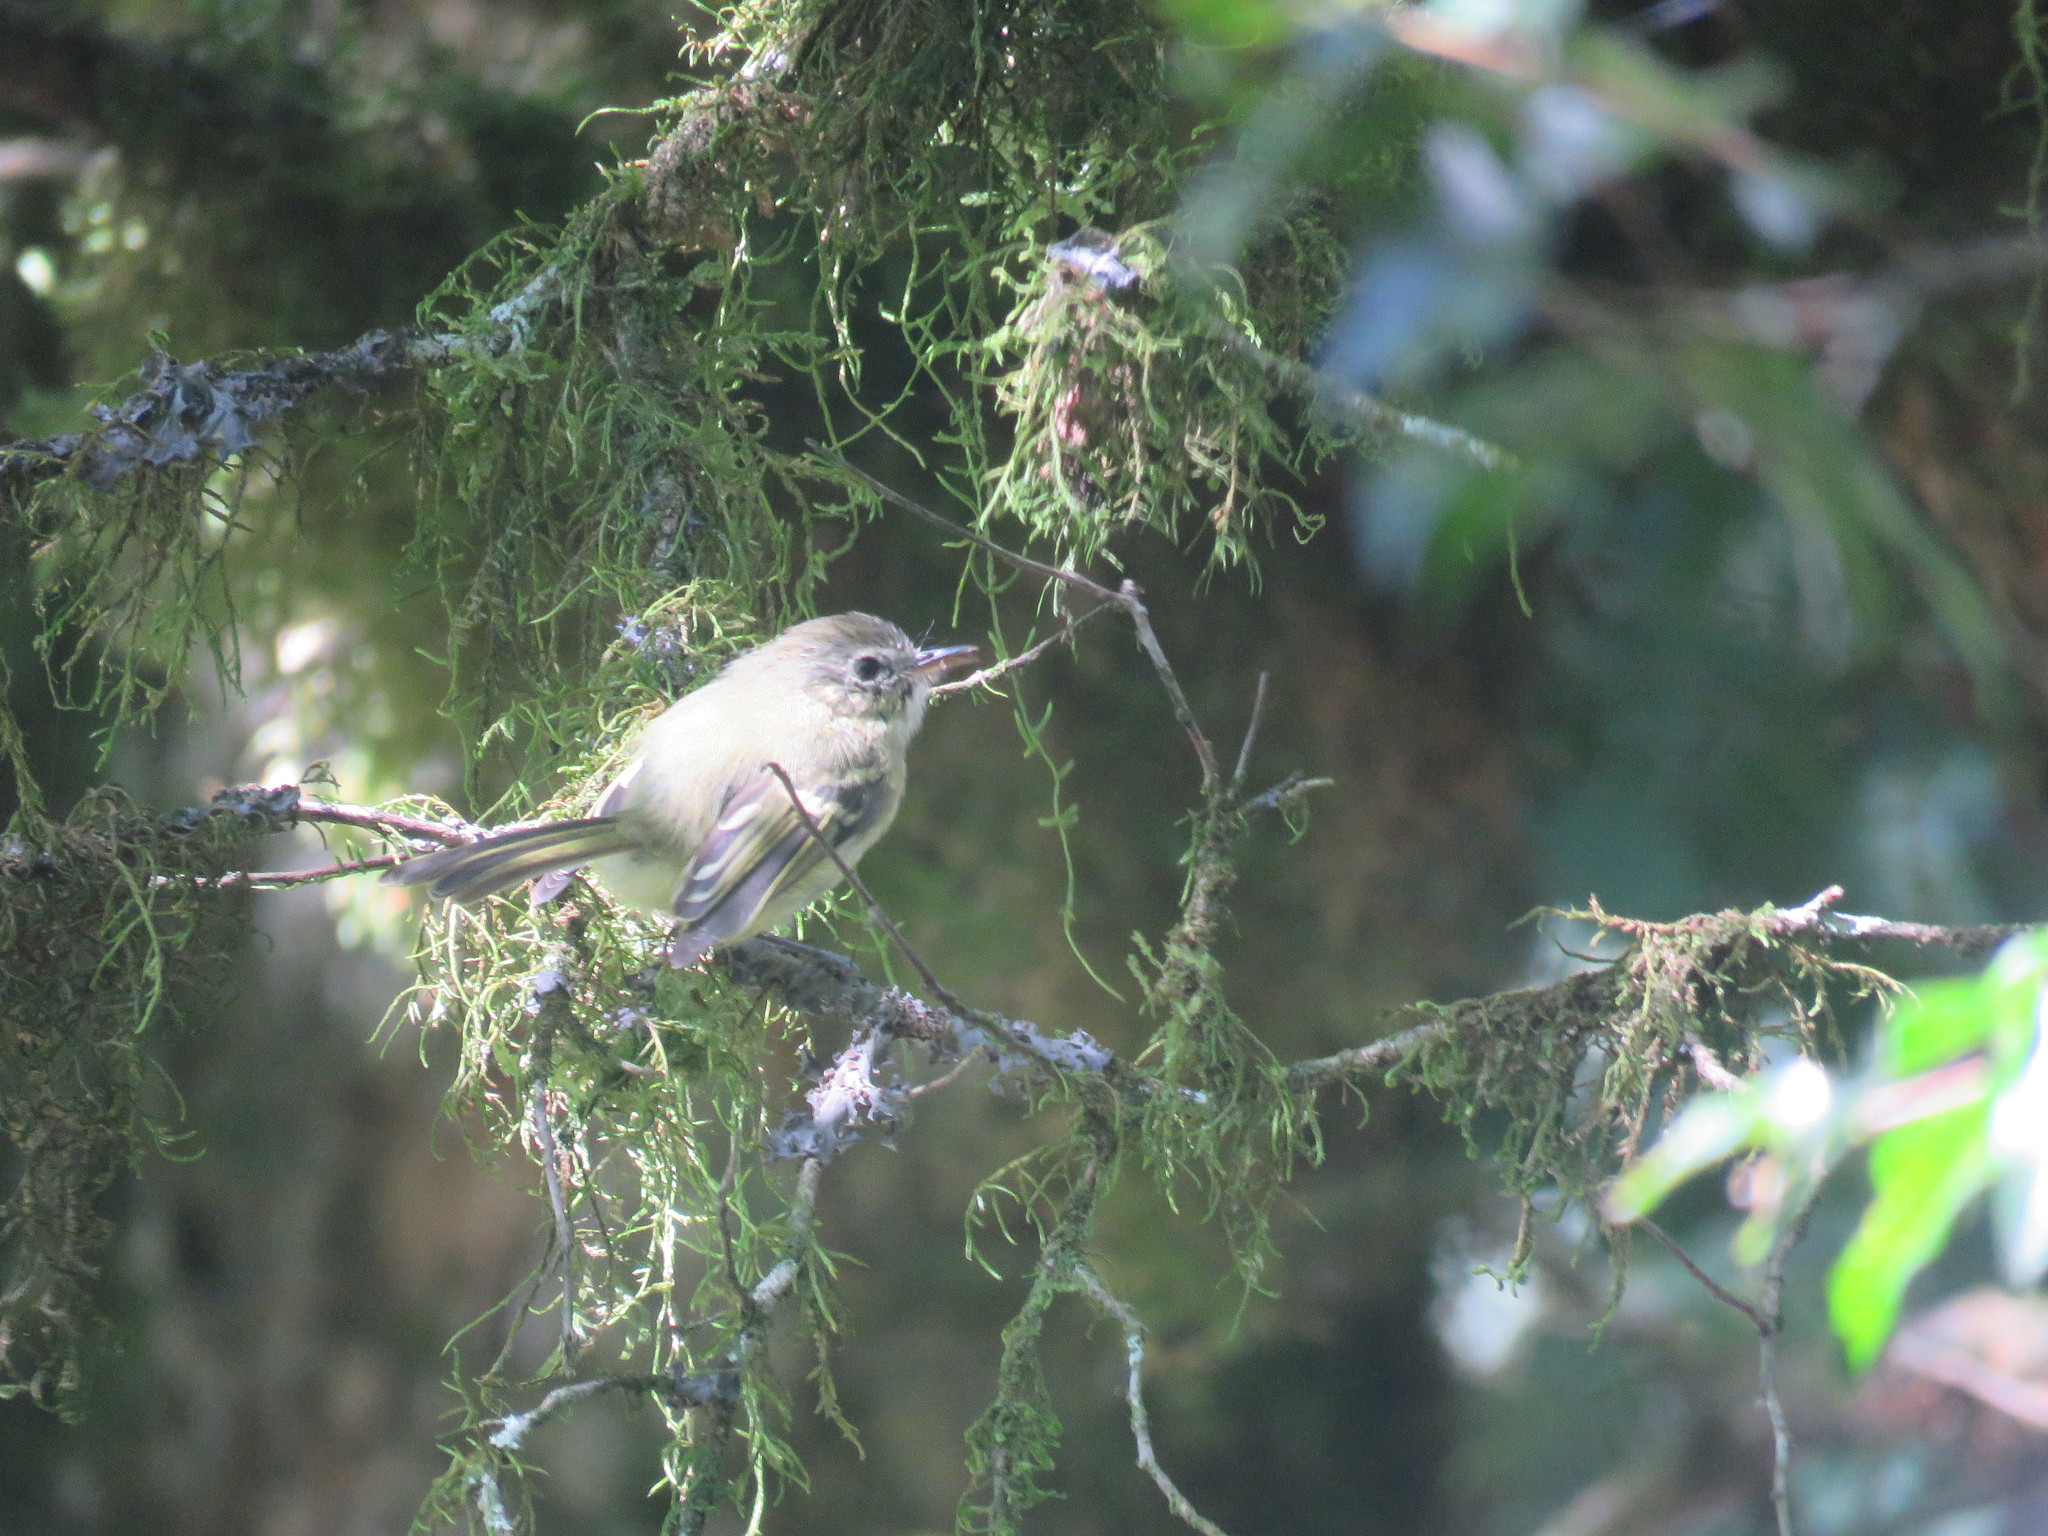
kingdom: Animalia
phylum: Chordata
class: Aves
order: Passeriformes
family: Tyrannidae
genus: Phylloscartes
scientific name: Phylloscartes ventralis
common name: Mottle-cheeked tyrannulet
